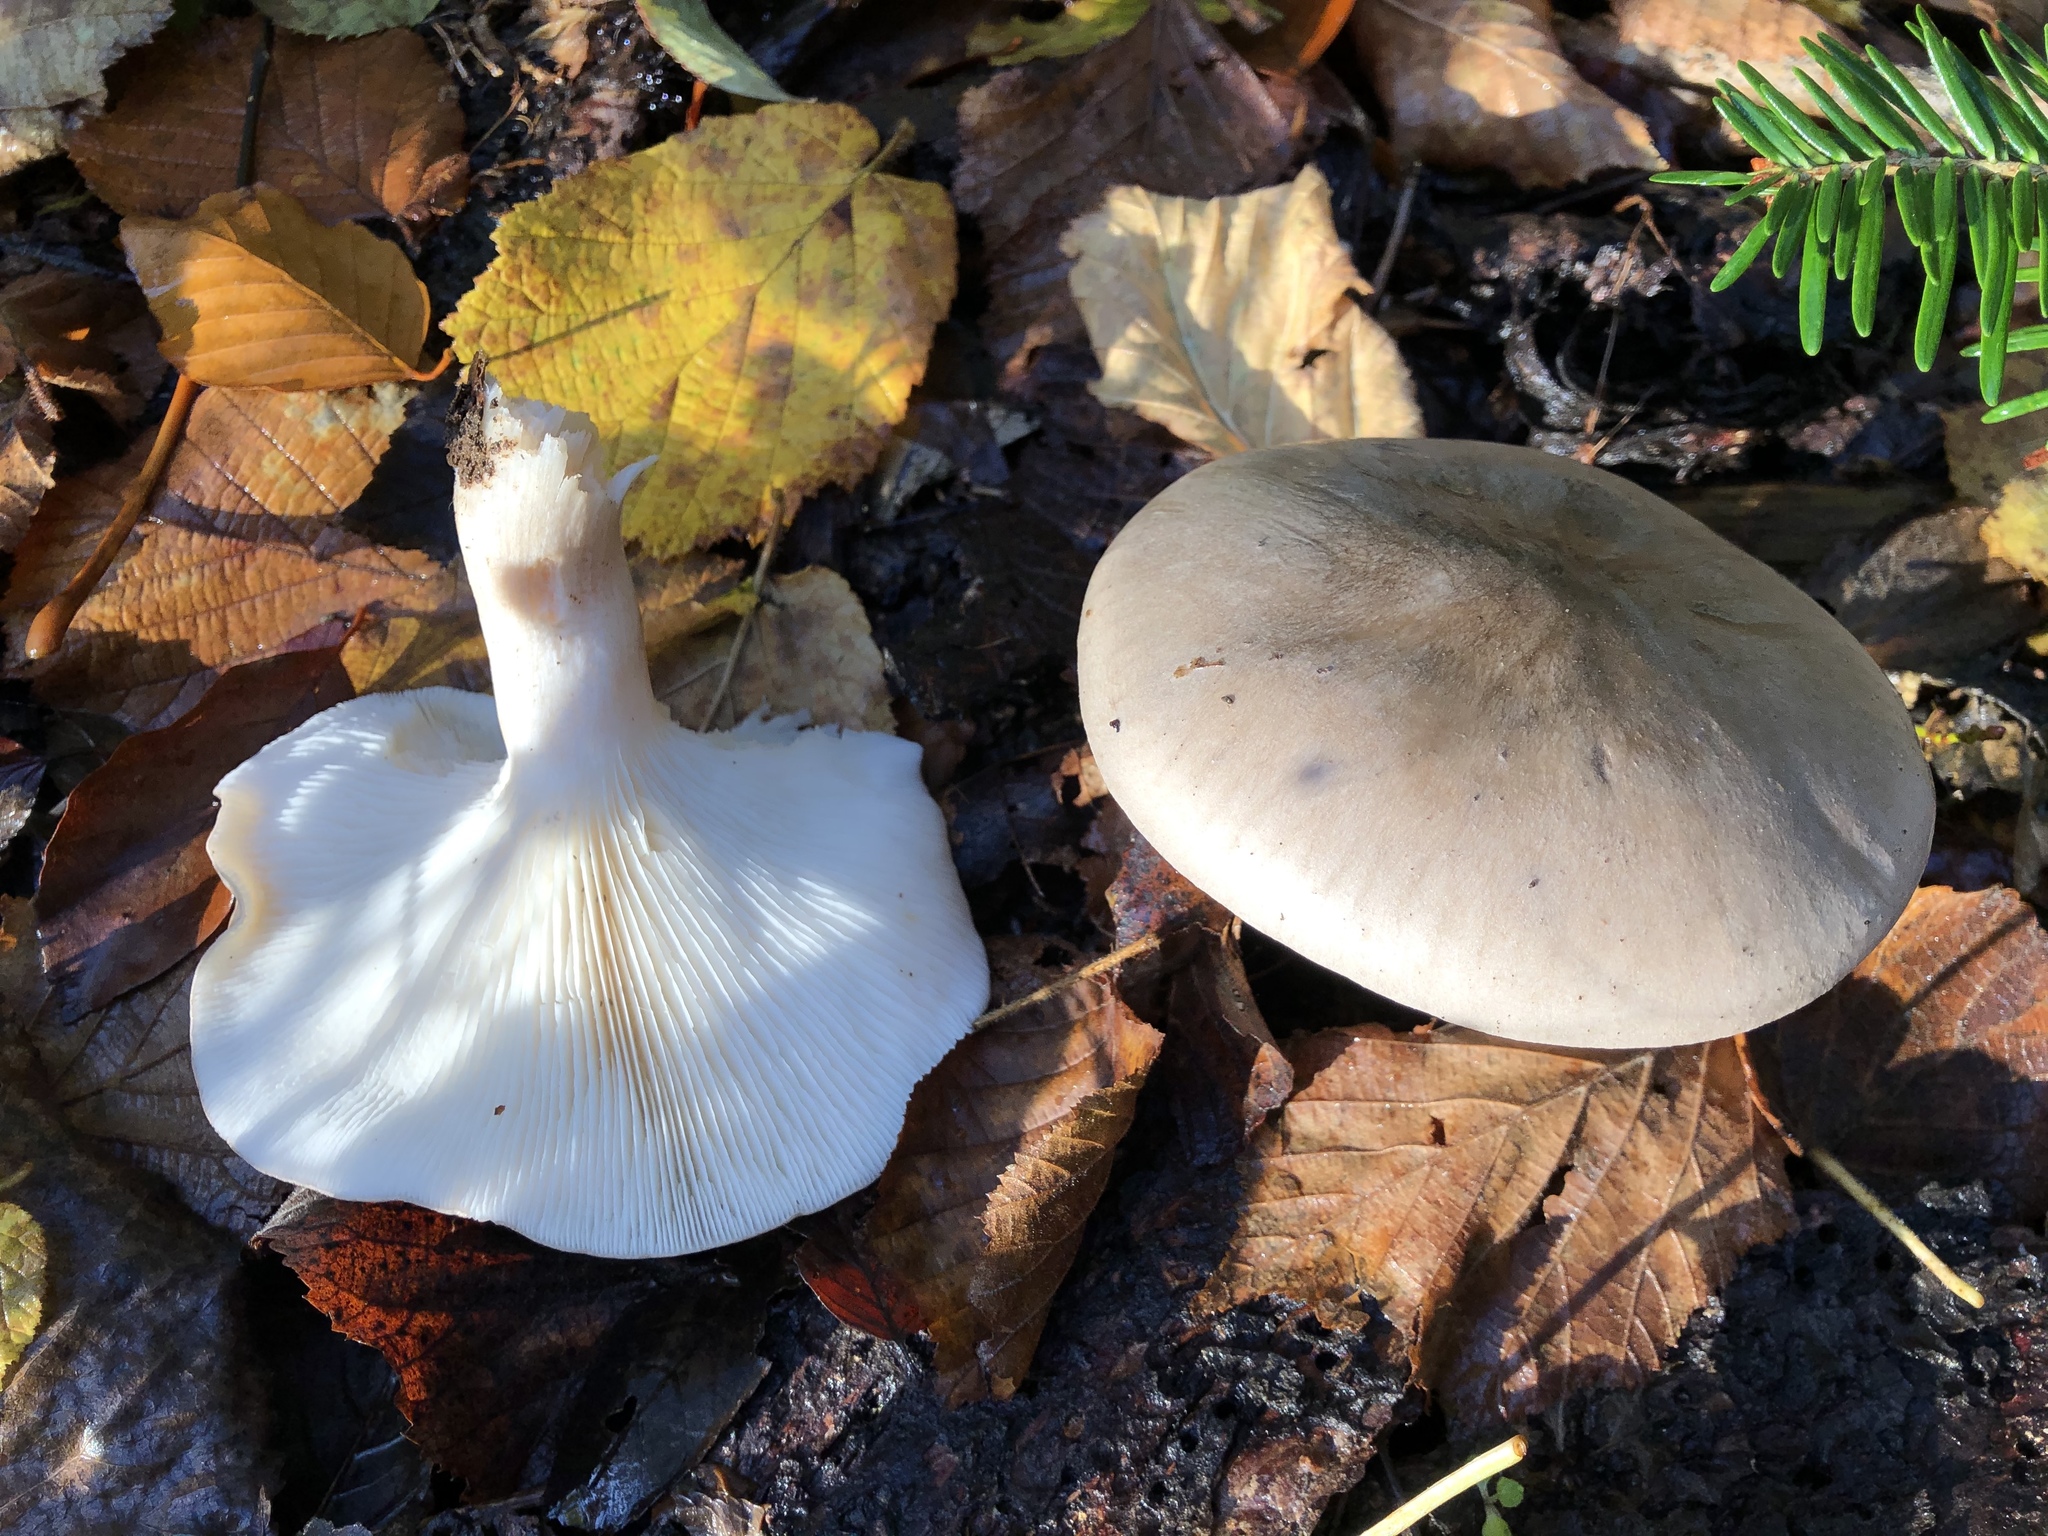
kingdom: Fungi
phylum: Basidiomycota
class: Agaricomycetes
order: Agaricales
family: Tricholomataceae
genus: Clitocybe
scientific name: Clitocybe nebularis
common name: Clouded agaric
